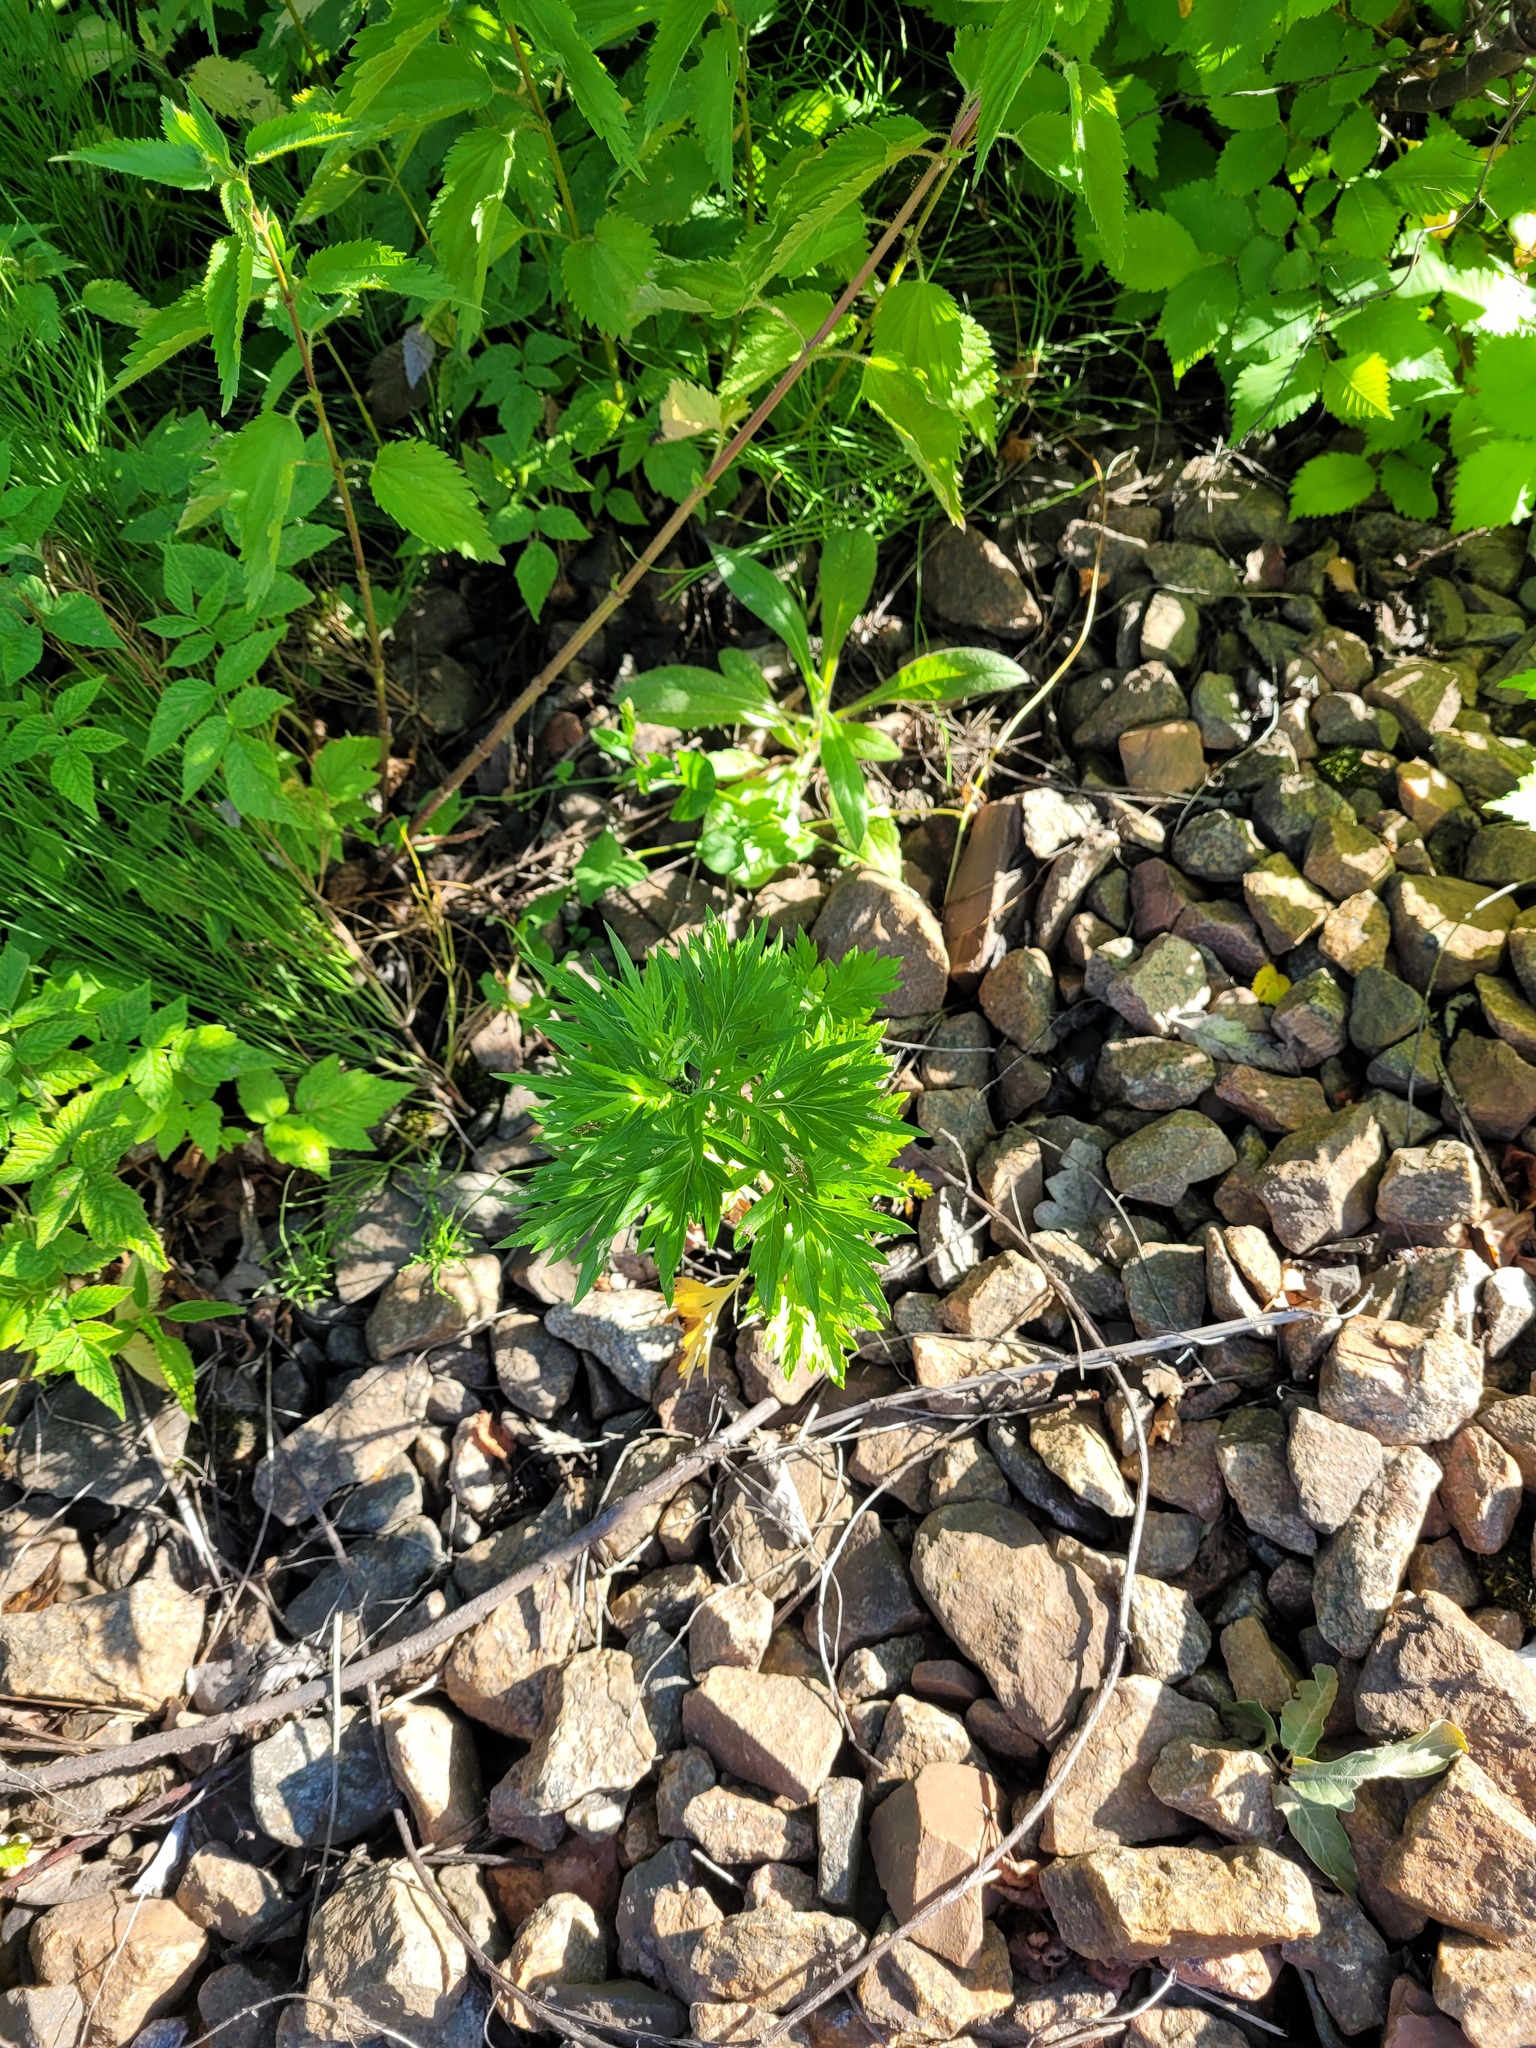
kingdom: Plantae
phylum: Tracheophyta
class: Magnoliopsida
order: Asterales
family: Asteraceae
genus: Artemisia
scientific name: Artemisia vulgaris
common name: Mugwort
